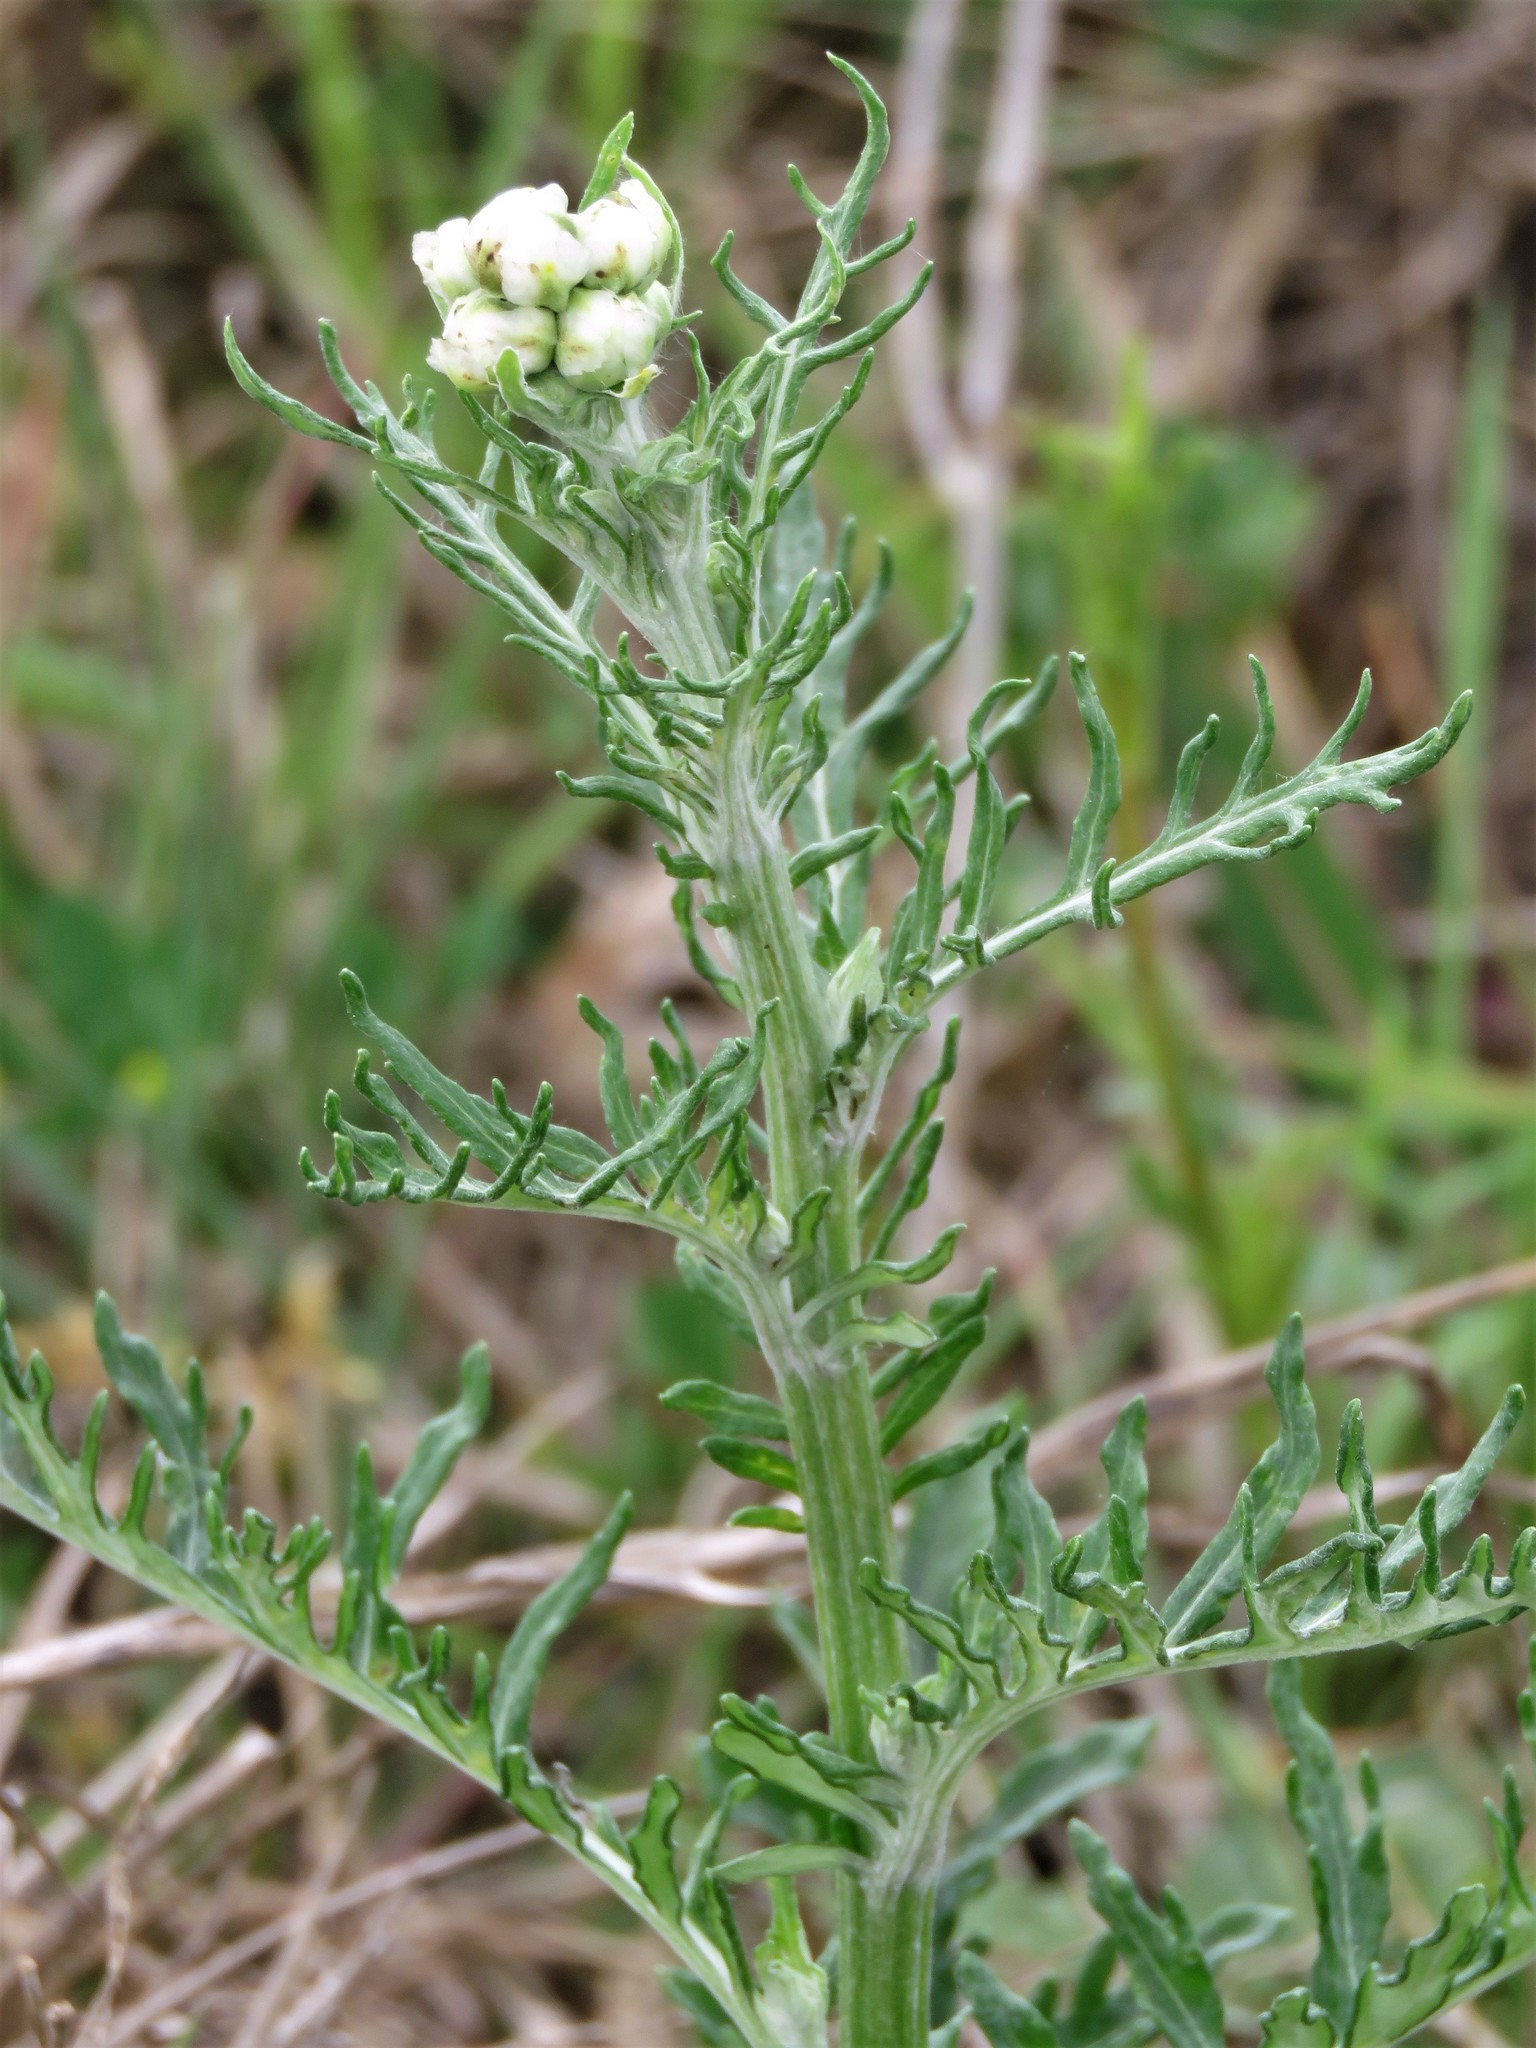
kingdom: Plantae
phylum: Tracheophyta
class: Magnoliopsida
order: Asterales
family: Asteraceae
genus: Hymenopappus
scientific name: Hymenopappus scabiosaeus
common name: Carolina woollywhite
